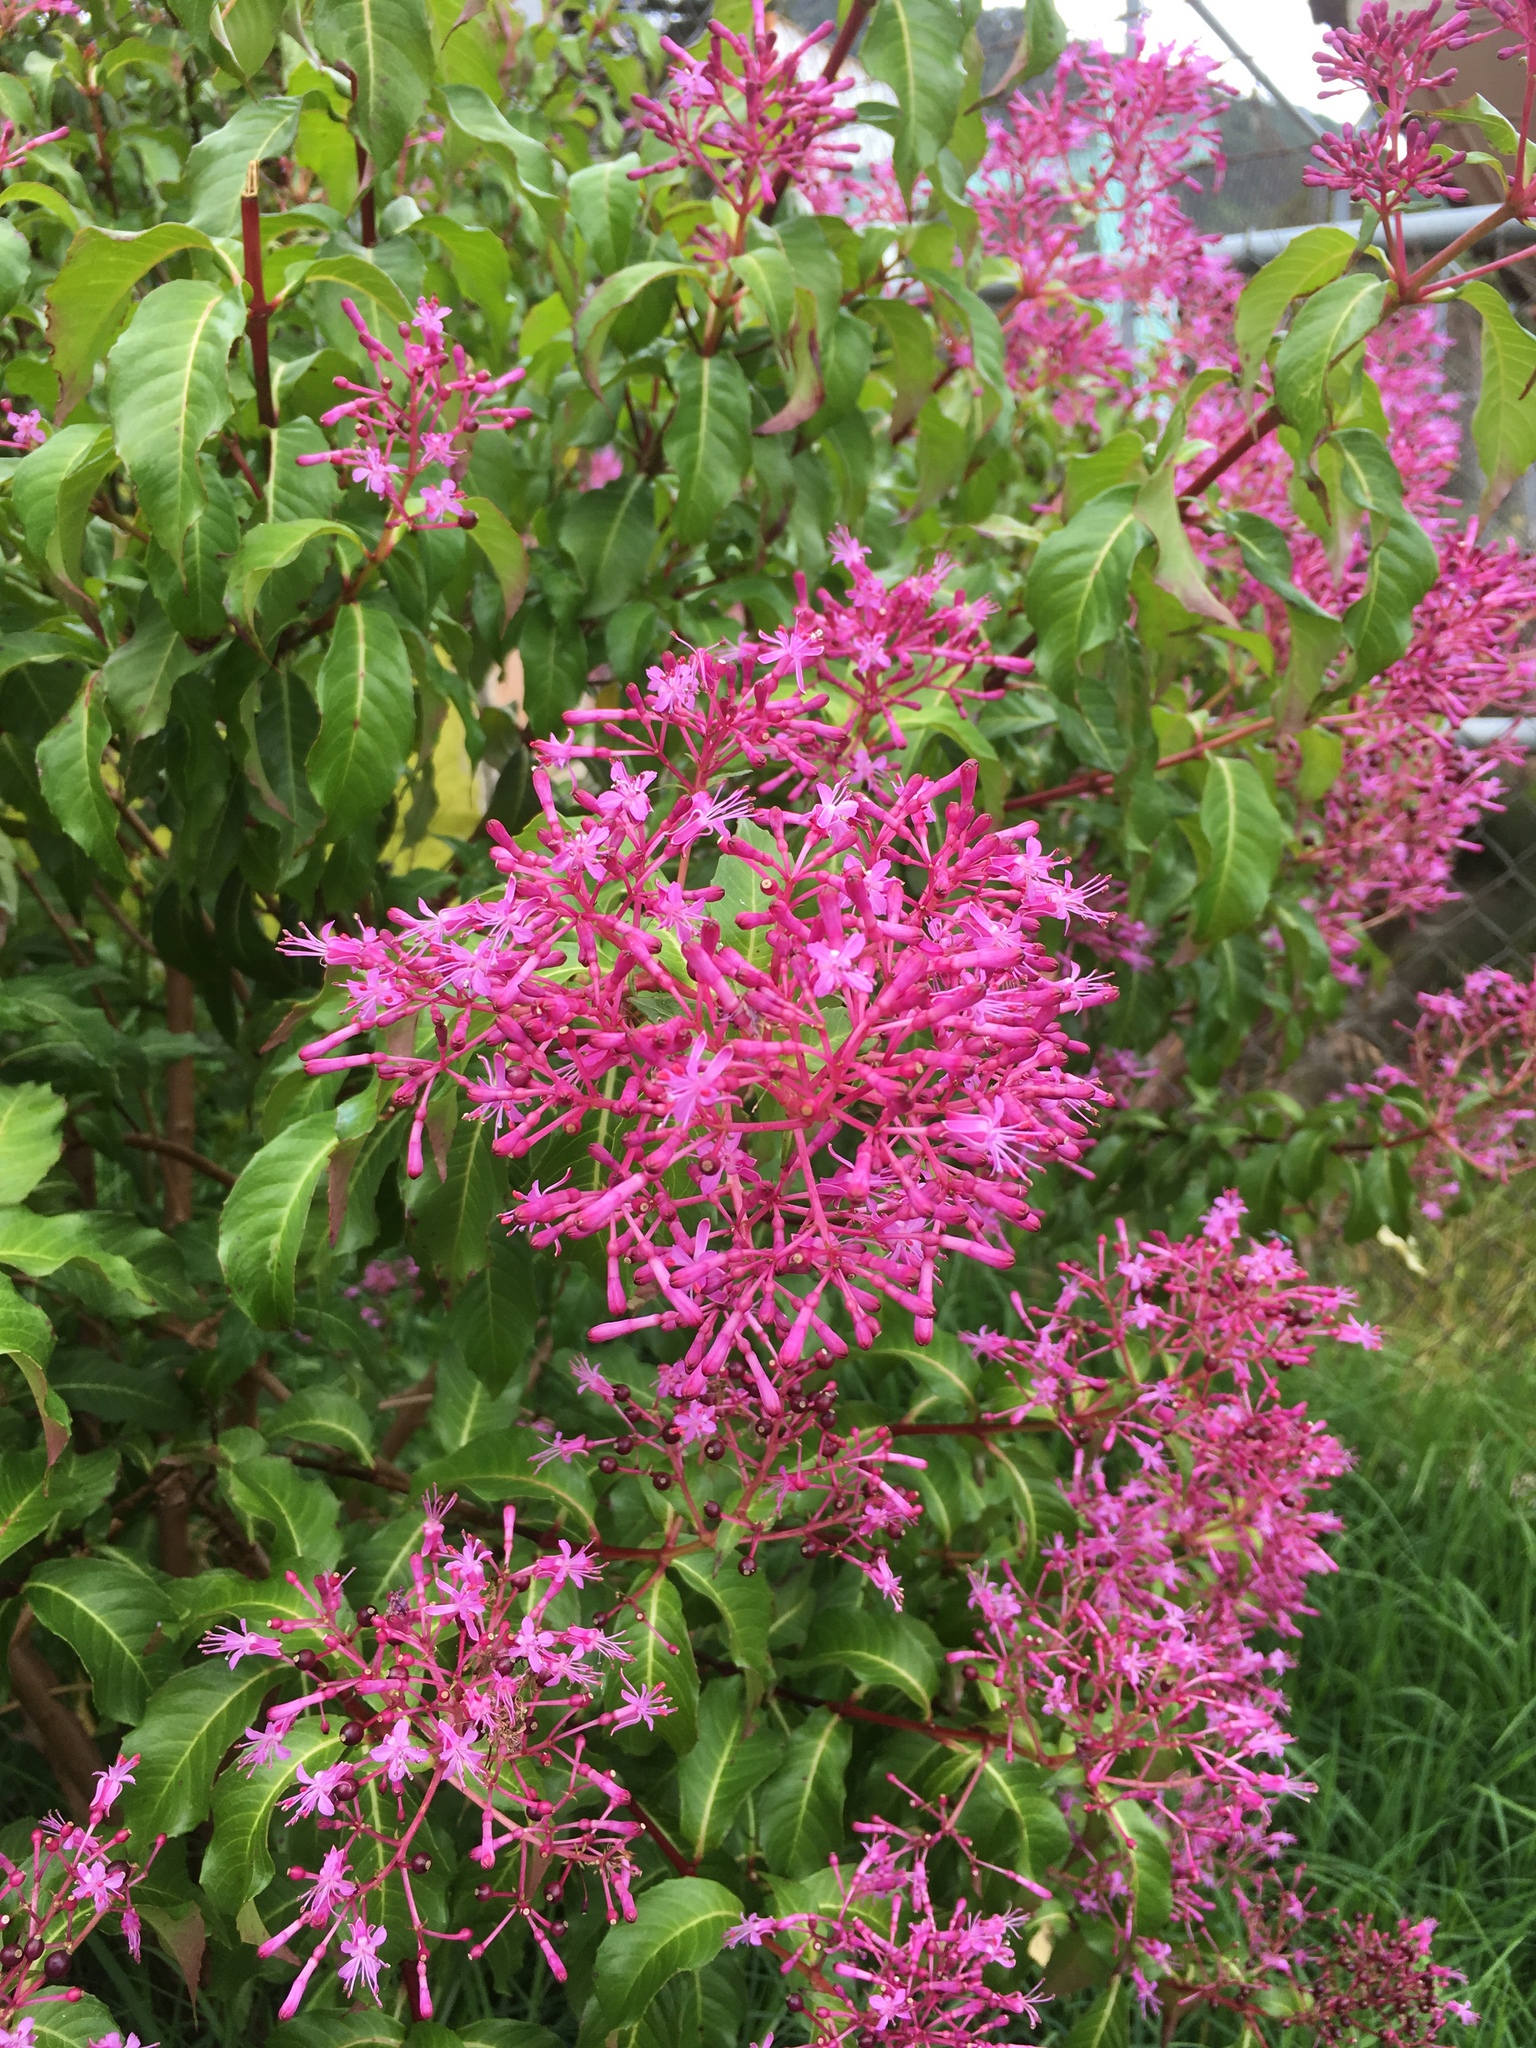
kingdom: Plantae
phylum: Tracheophyta
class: Magnoliopsida
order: Myrtales
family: Onagraceae
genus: Fuchsia
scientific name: Fuchsia paniculata
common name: Shrubby fuchsia
